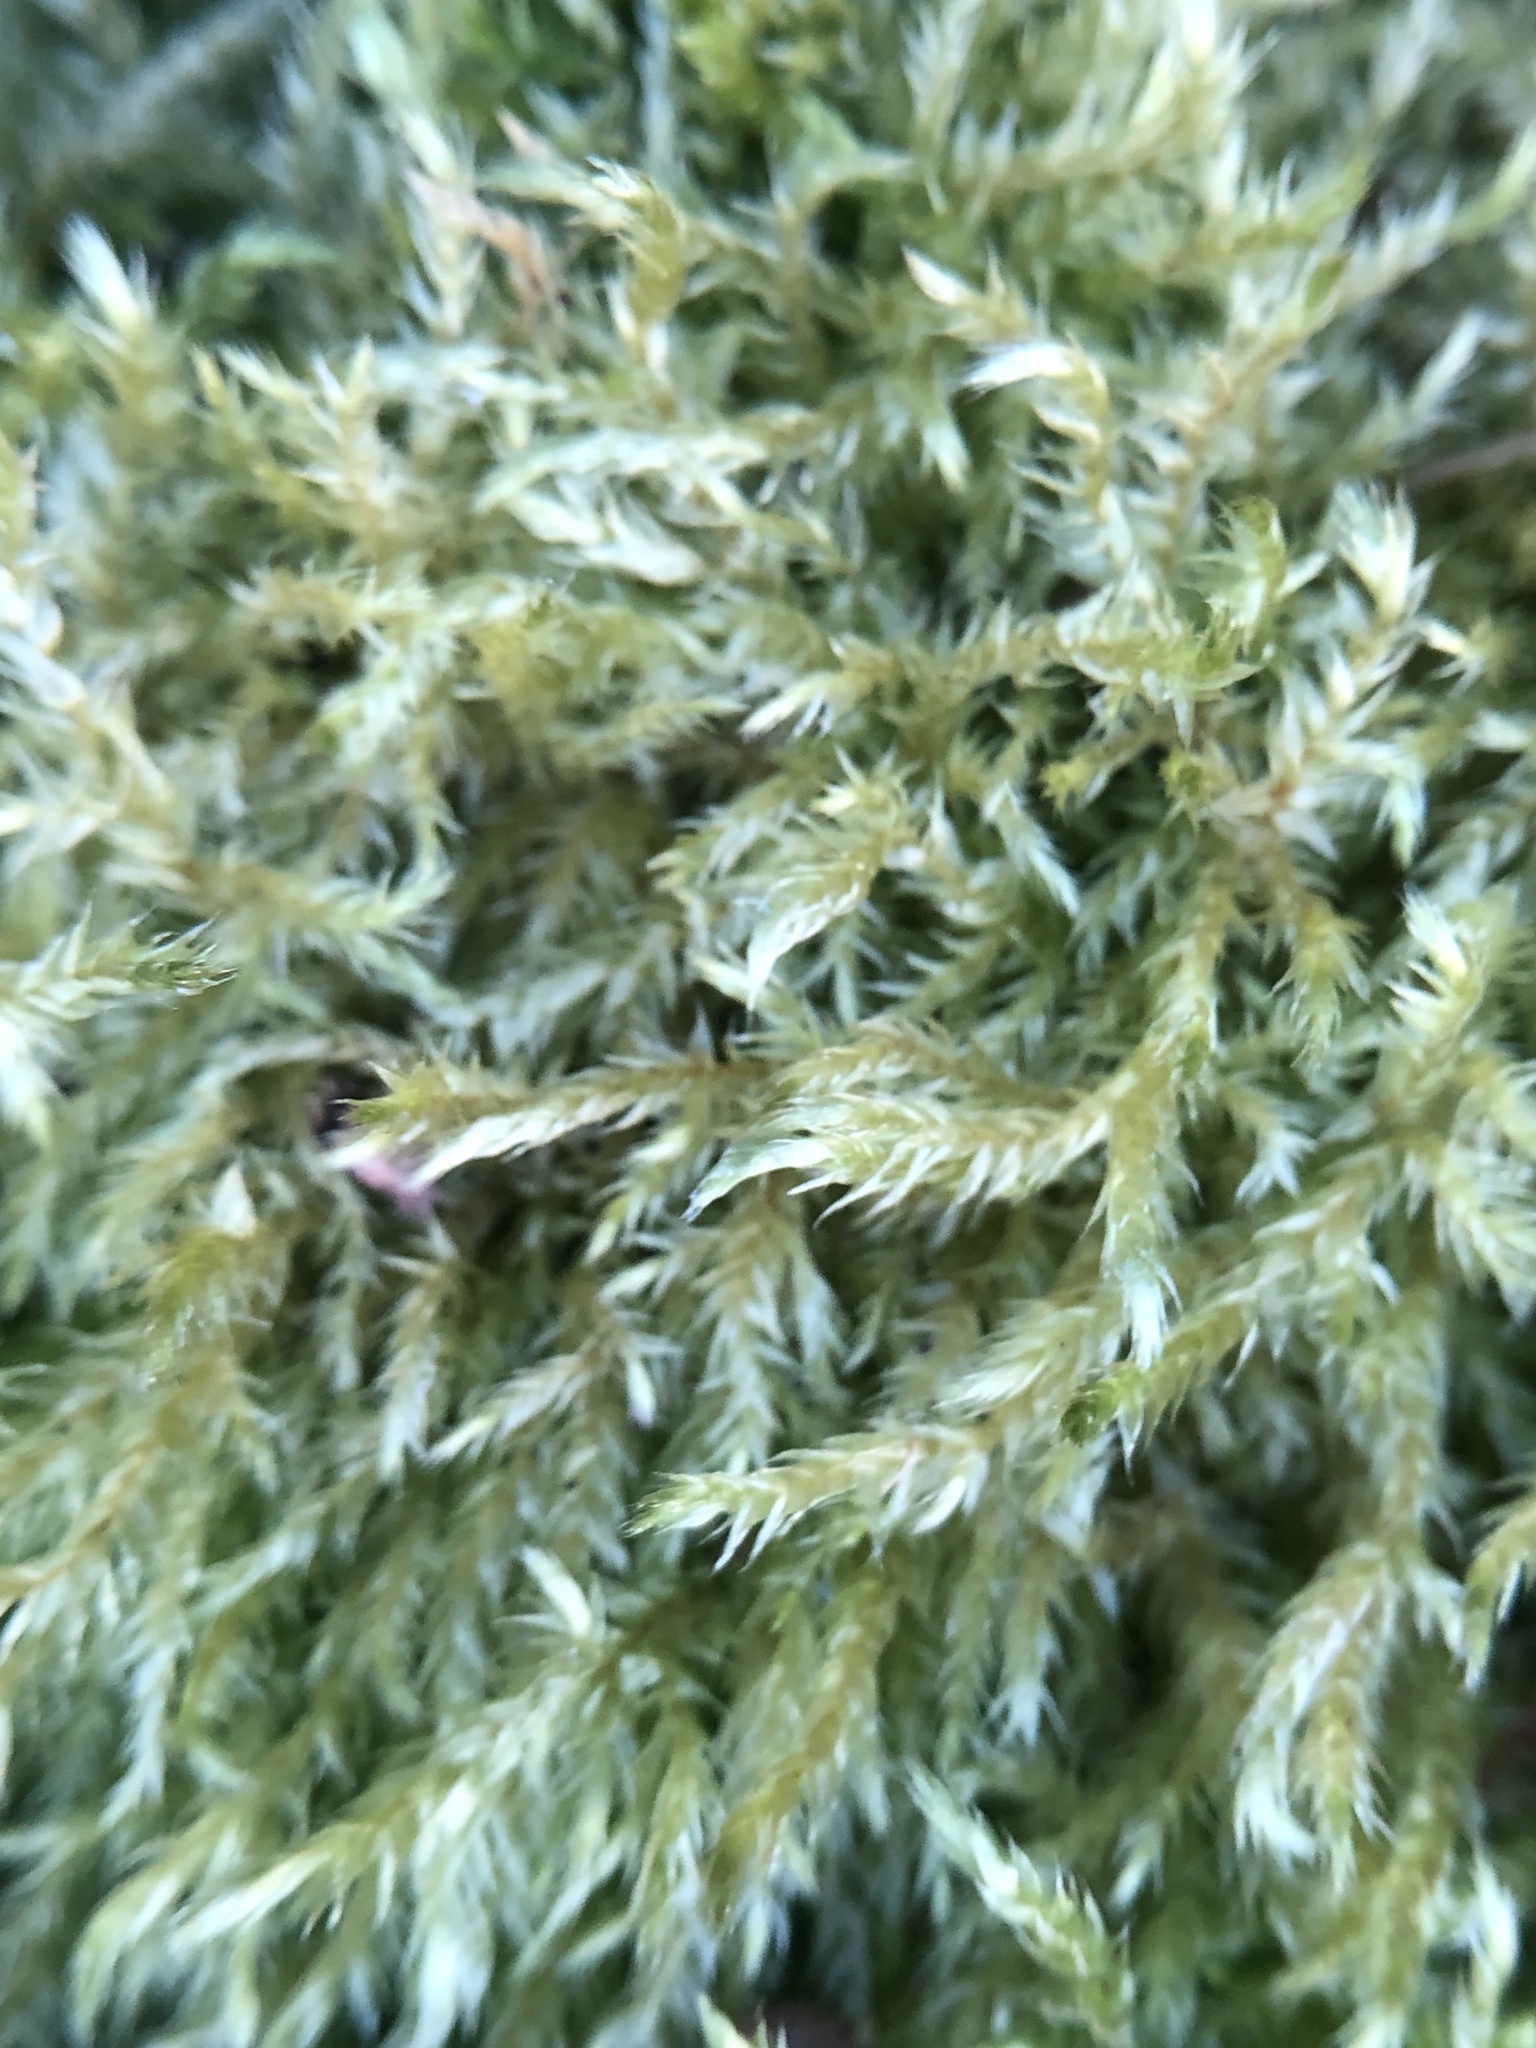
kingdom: Plantae
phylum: Bryophyta
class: Bryopsida
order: Hypnales
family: Callicladiaceae
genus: Callicladium
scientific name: Callicladium haldanianum
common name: Beautiful branch moss
